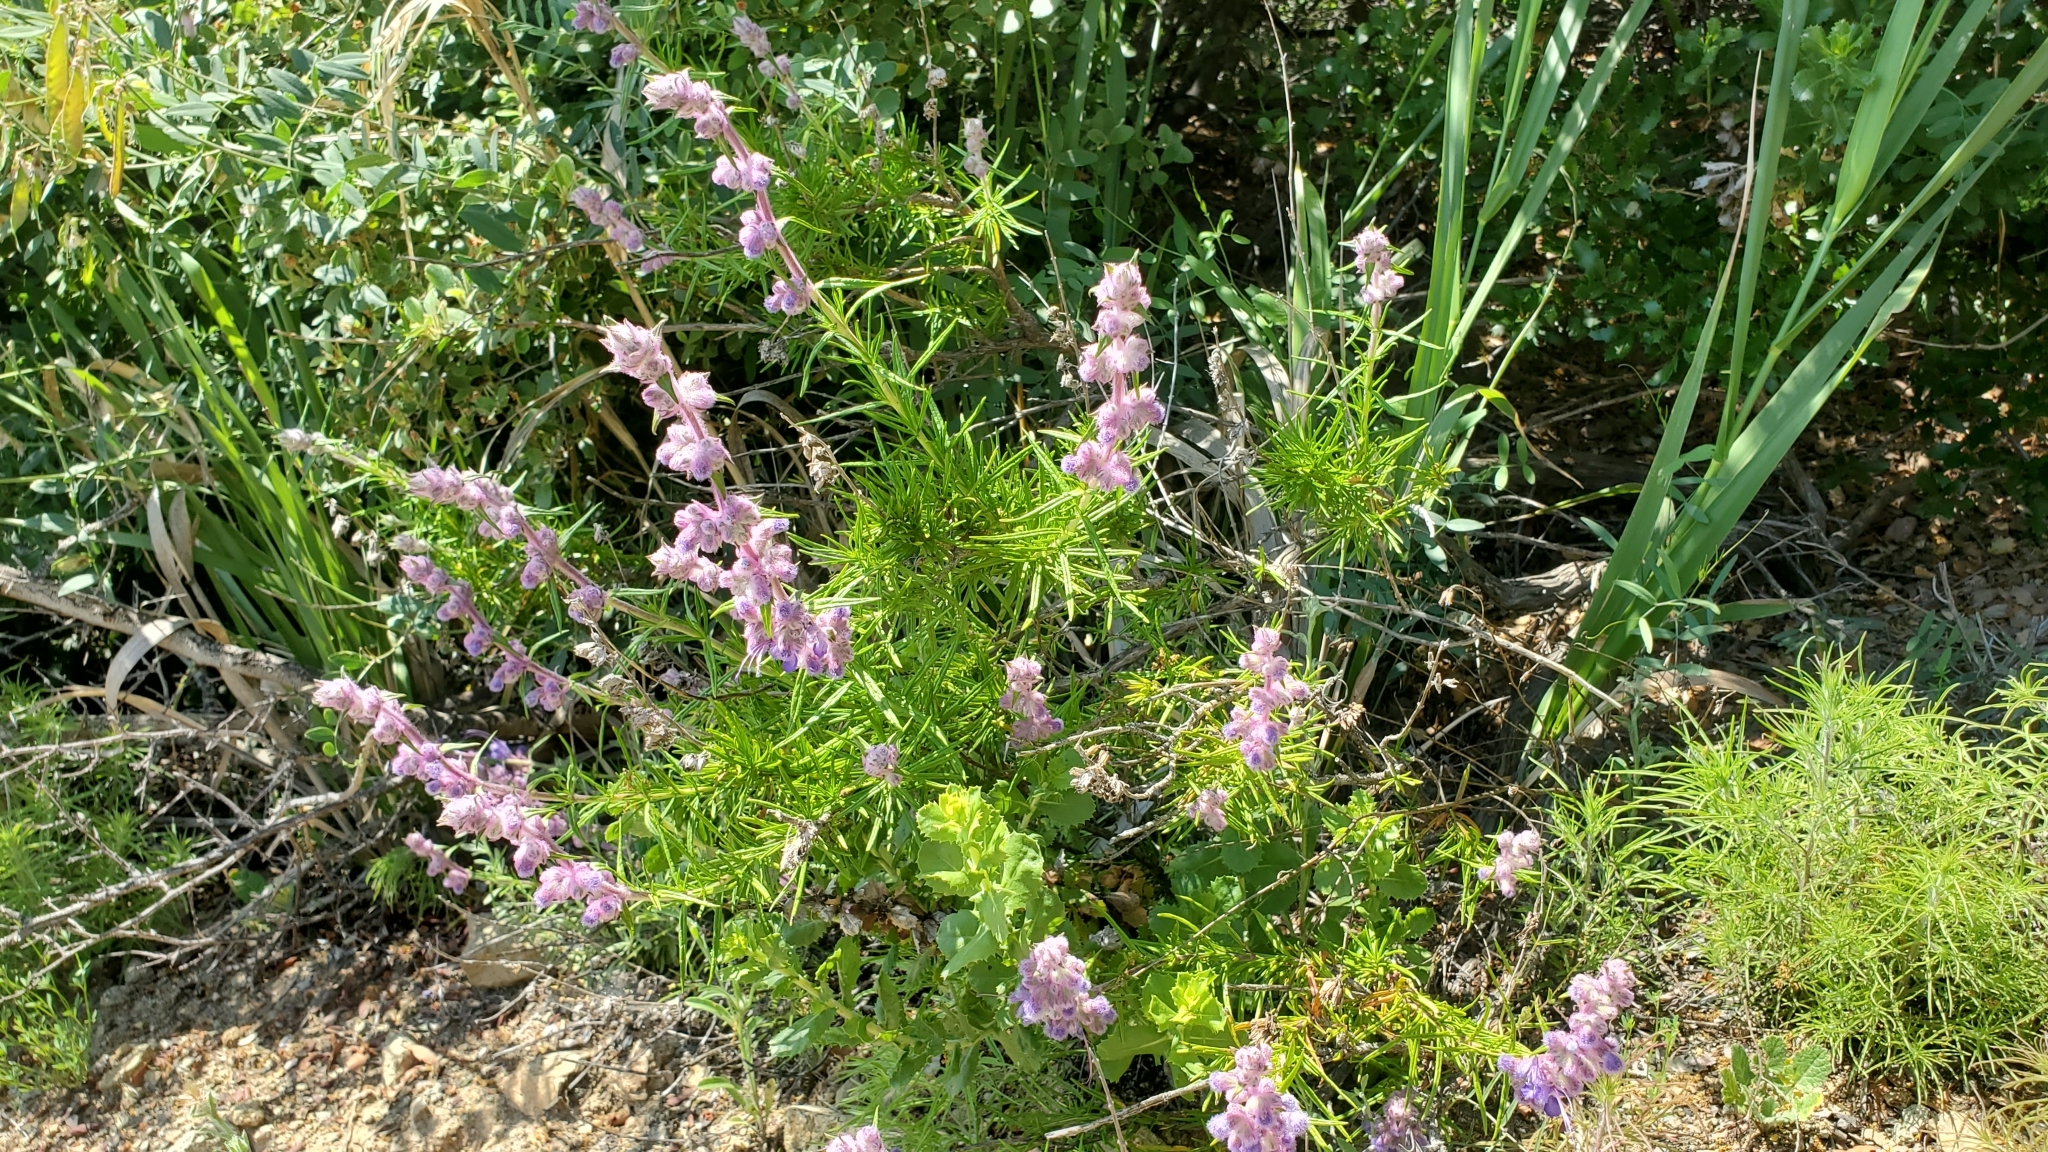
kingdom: Plantae
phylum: Tracheophyta
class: Magnoliopsida
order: Lamiales
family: Lamiaceae
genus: Trichostema
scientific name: Trichostema lanatum
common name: Woolly bluecurls
